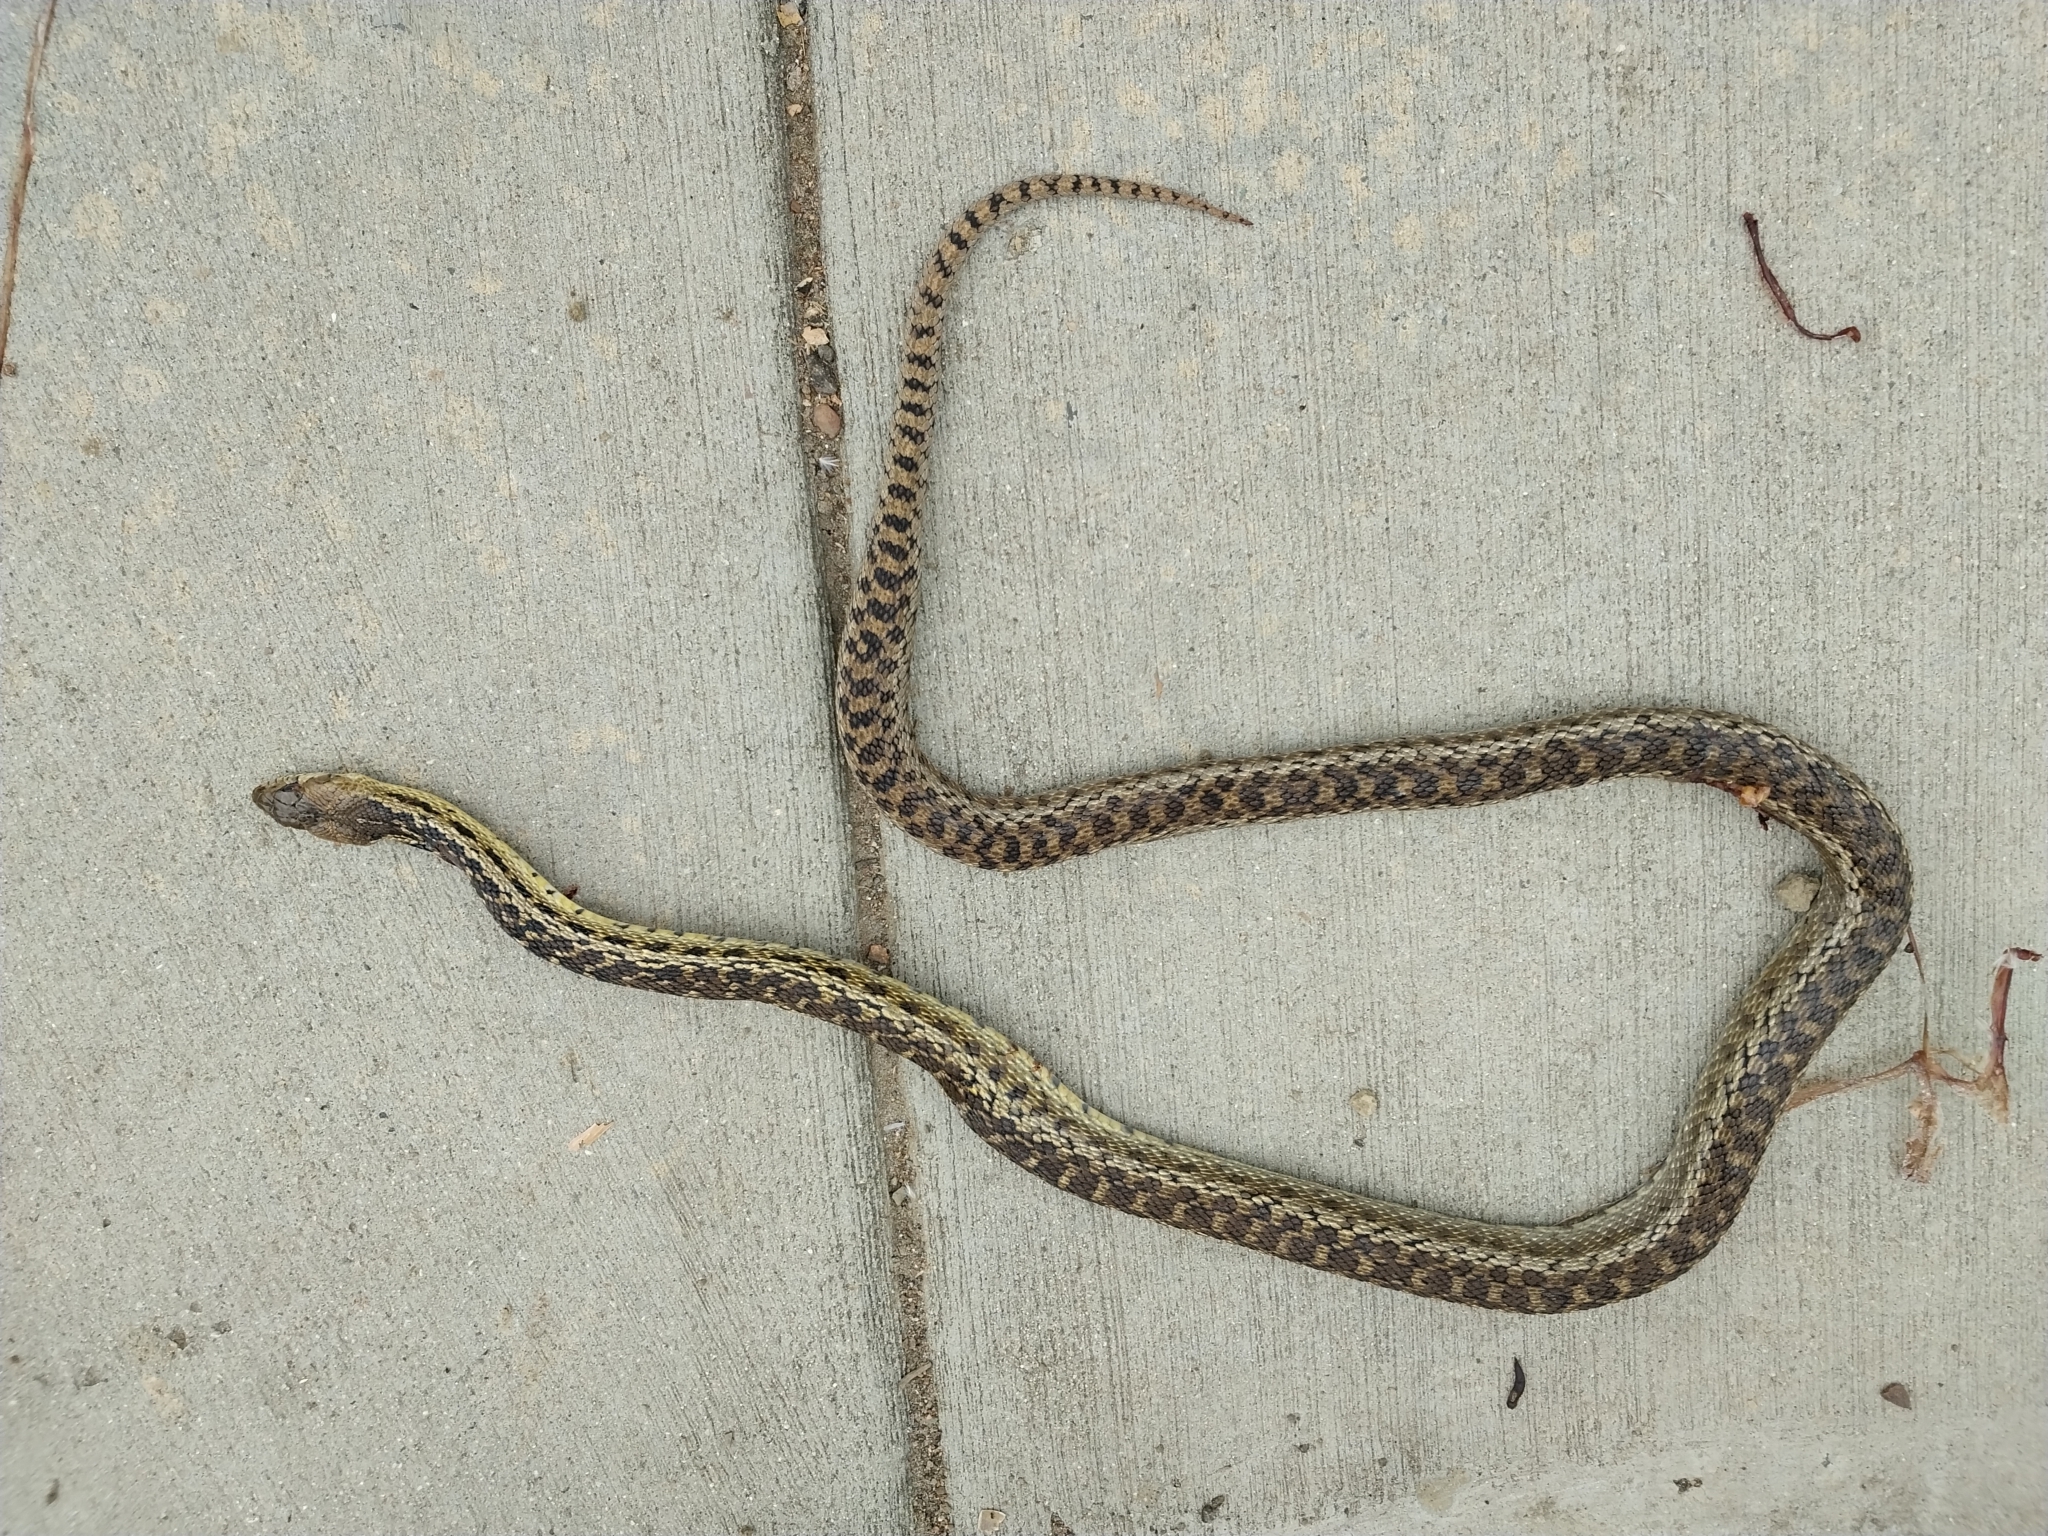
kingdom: Animalia
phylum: Chordata
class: Squamata
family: Colubridae
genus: Pituophis
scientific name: Pituophis catenifer
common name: Gopher snake
